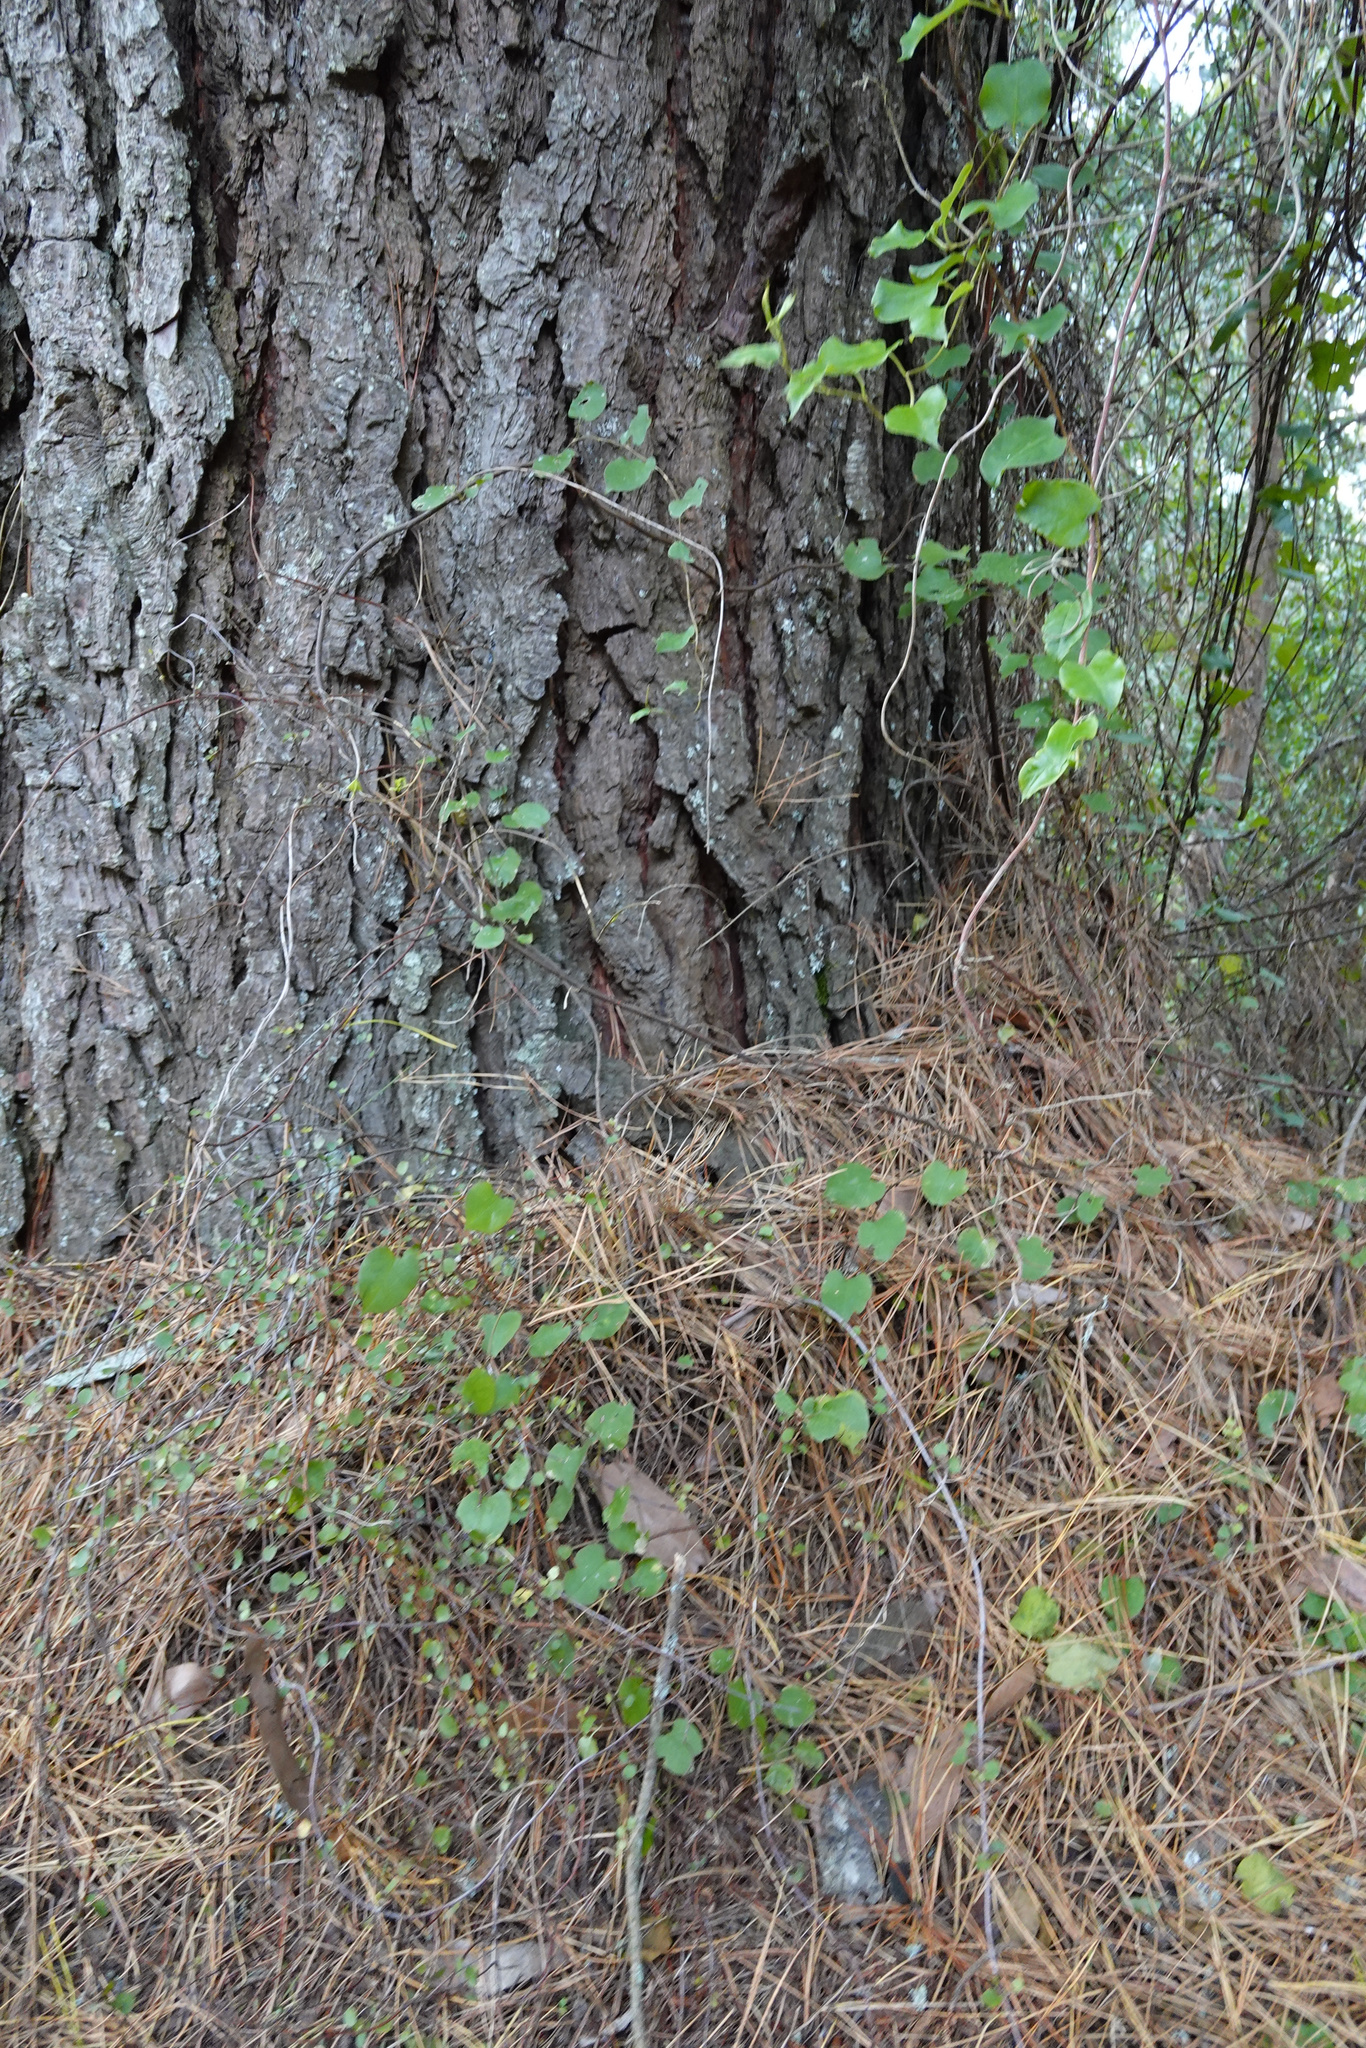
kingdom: Plantae
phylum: Tracheophyta
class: Magnoliopsida
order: Caryophyllales
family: Polygonaceae
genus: Muehlenbeckia
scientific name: Muehlenbeckia australis
